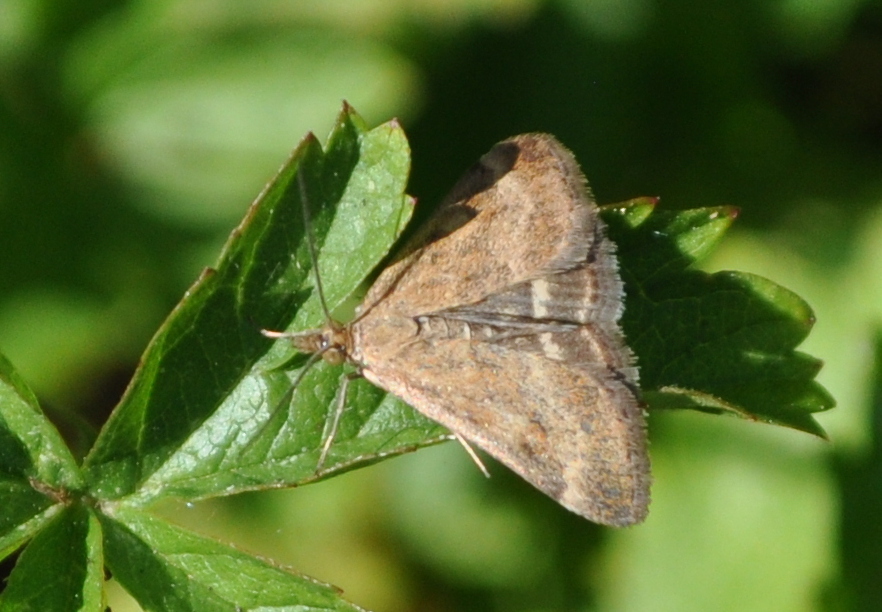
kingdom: Animalia
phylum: Arthropoda
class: Insecta
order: Lepidoptera
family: Crambidae
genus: Pyrausta
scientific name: Pyrausta despicata
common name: Straw-barred pearl
